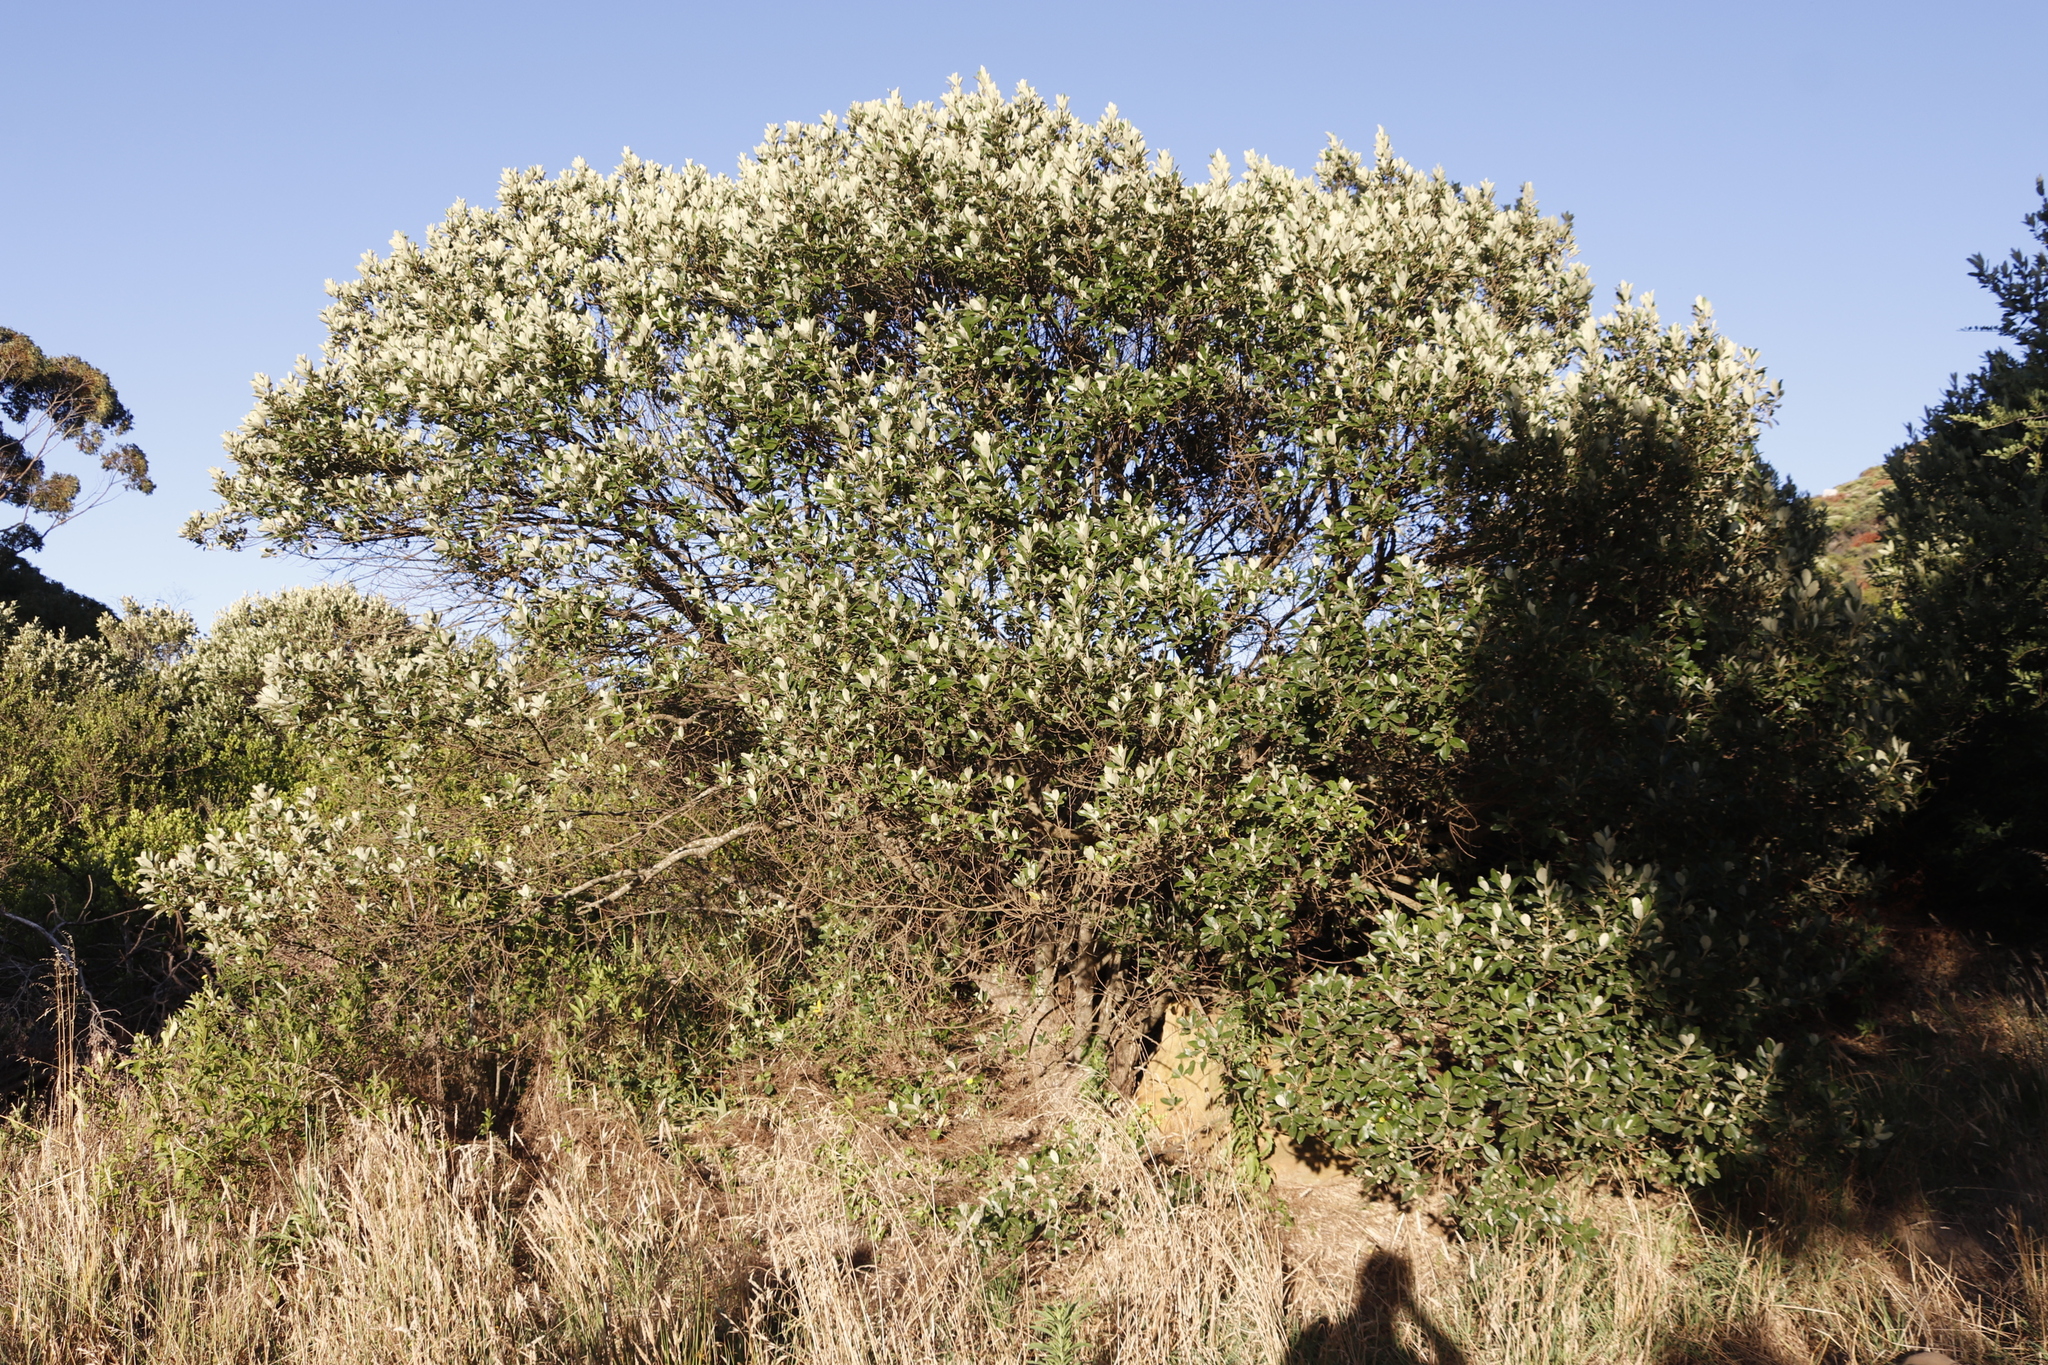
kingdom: Plantae
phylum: Tracheophyta
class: Magnoliopsida
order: Lamiales
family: Oleaceae
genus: Olea
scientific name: Olea europaea
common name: Olive
